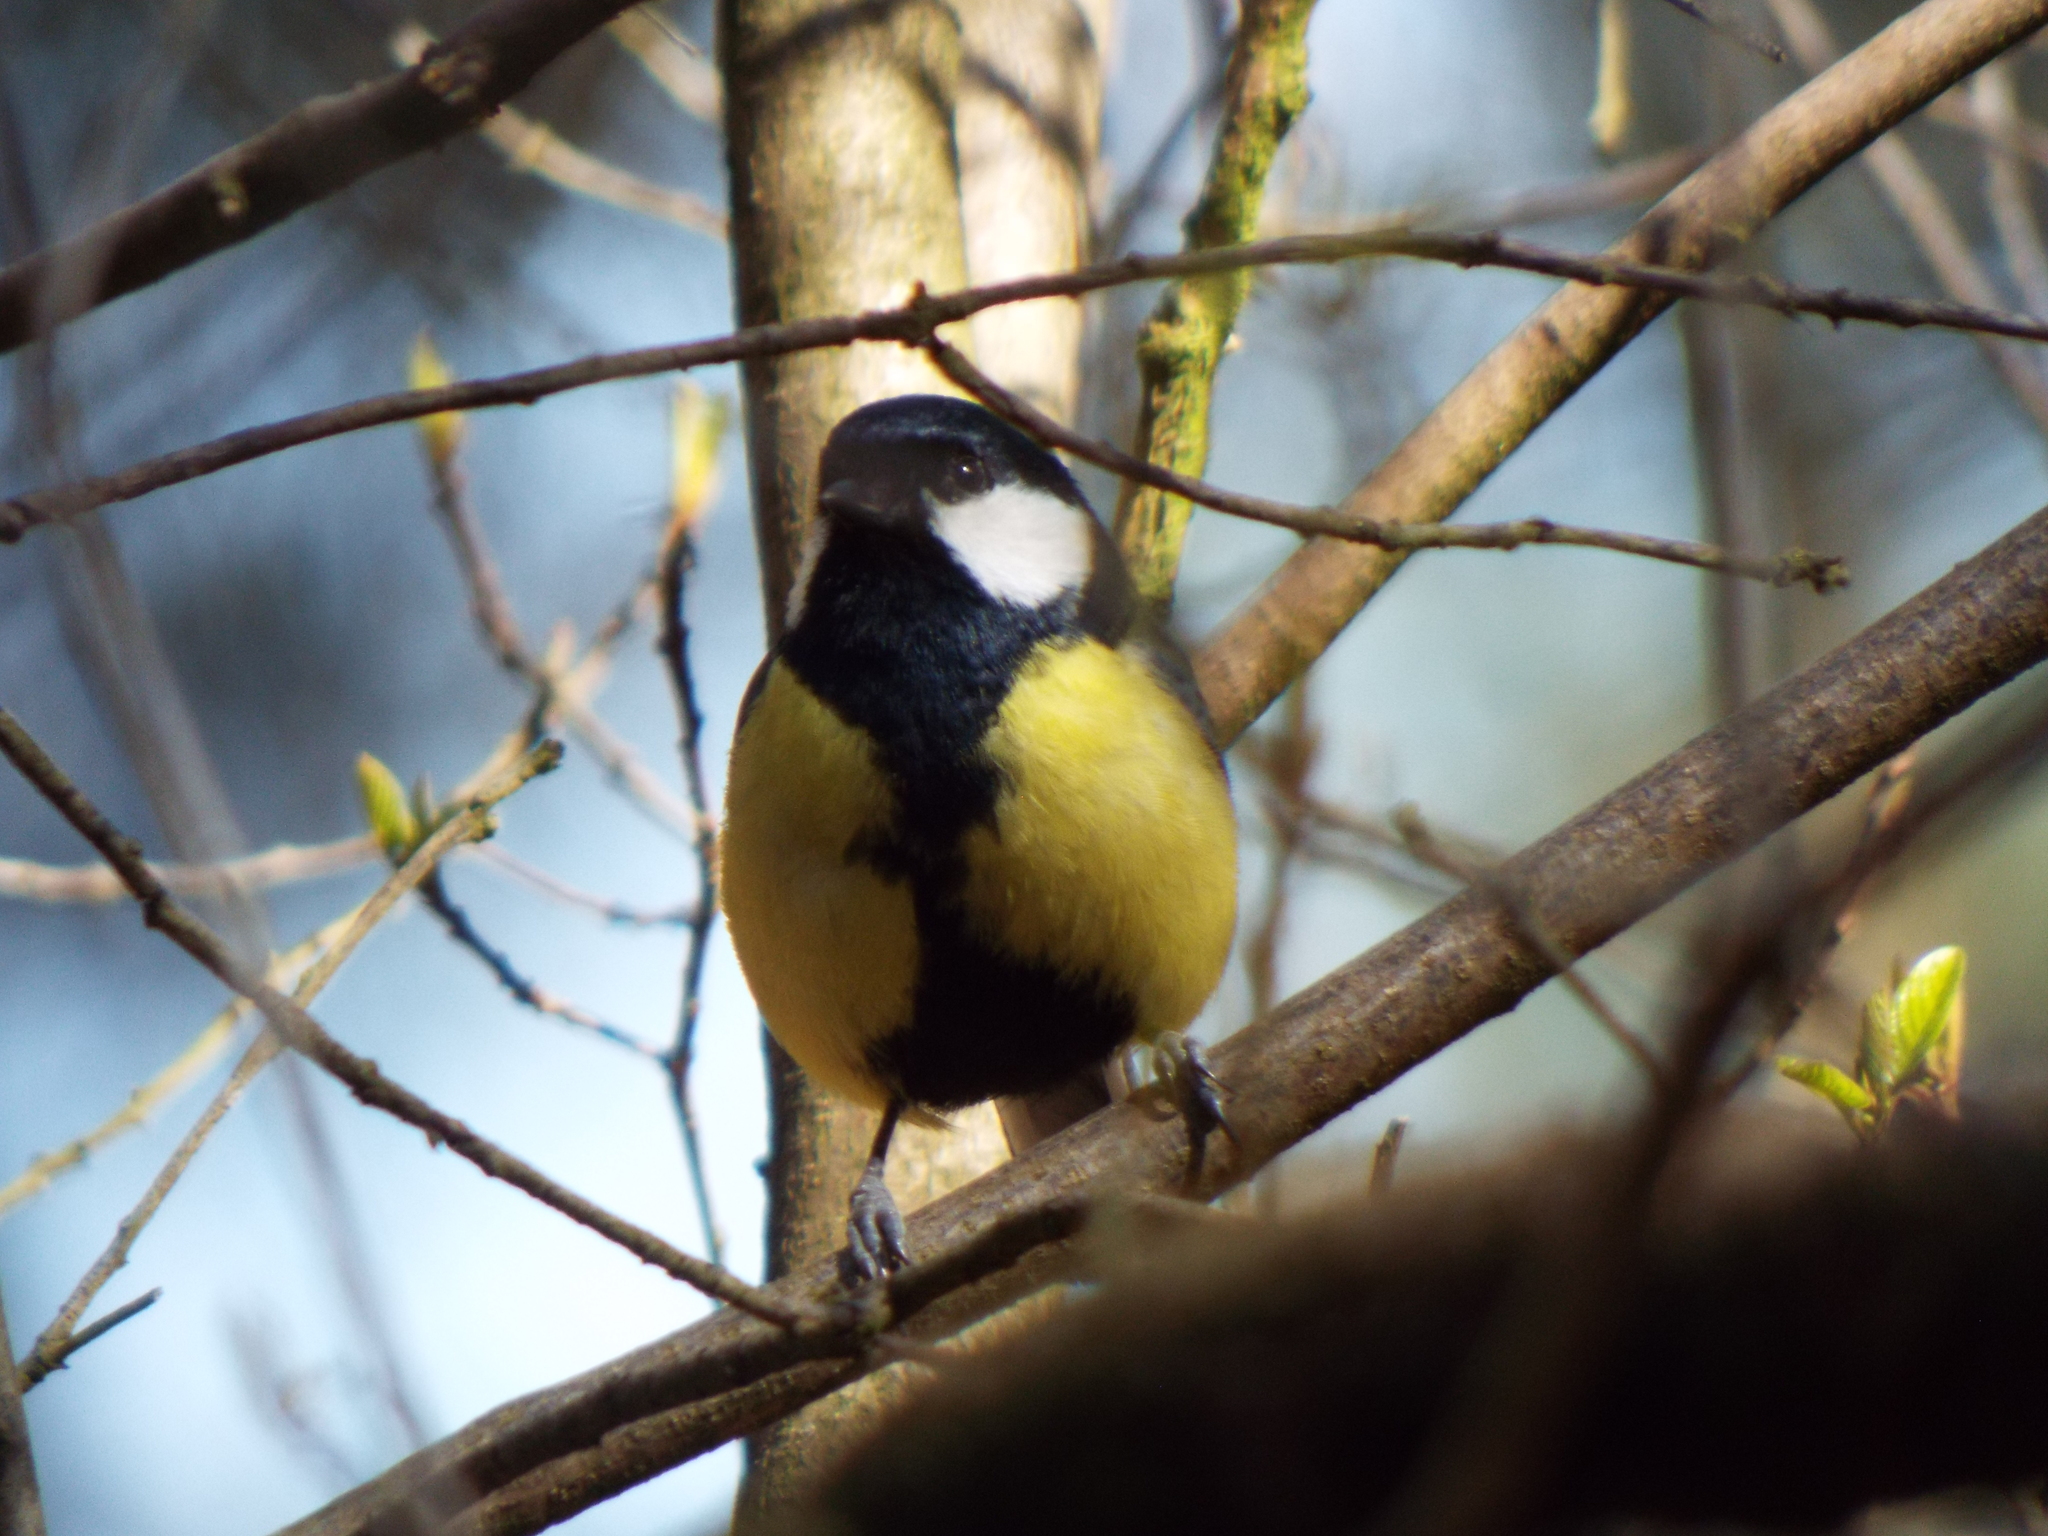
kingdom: Animalia
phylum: Chordata
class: Aves
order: Passeriformes
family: Paridae
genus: Parus
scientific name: Parus major
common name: Great tit
